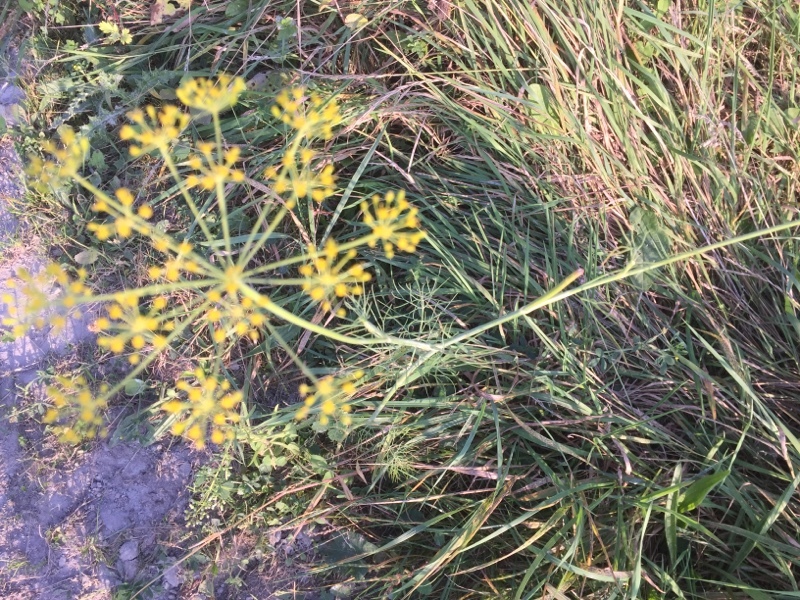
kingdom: Plantae
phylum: Tracheophyta
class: Magnoliopsida
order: Apiales
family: Apiaceae
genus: Foeniculum
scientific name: Foeniculum vulgare
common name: Fennel
